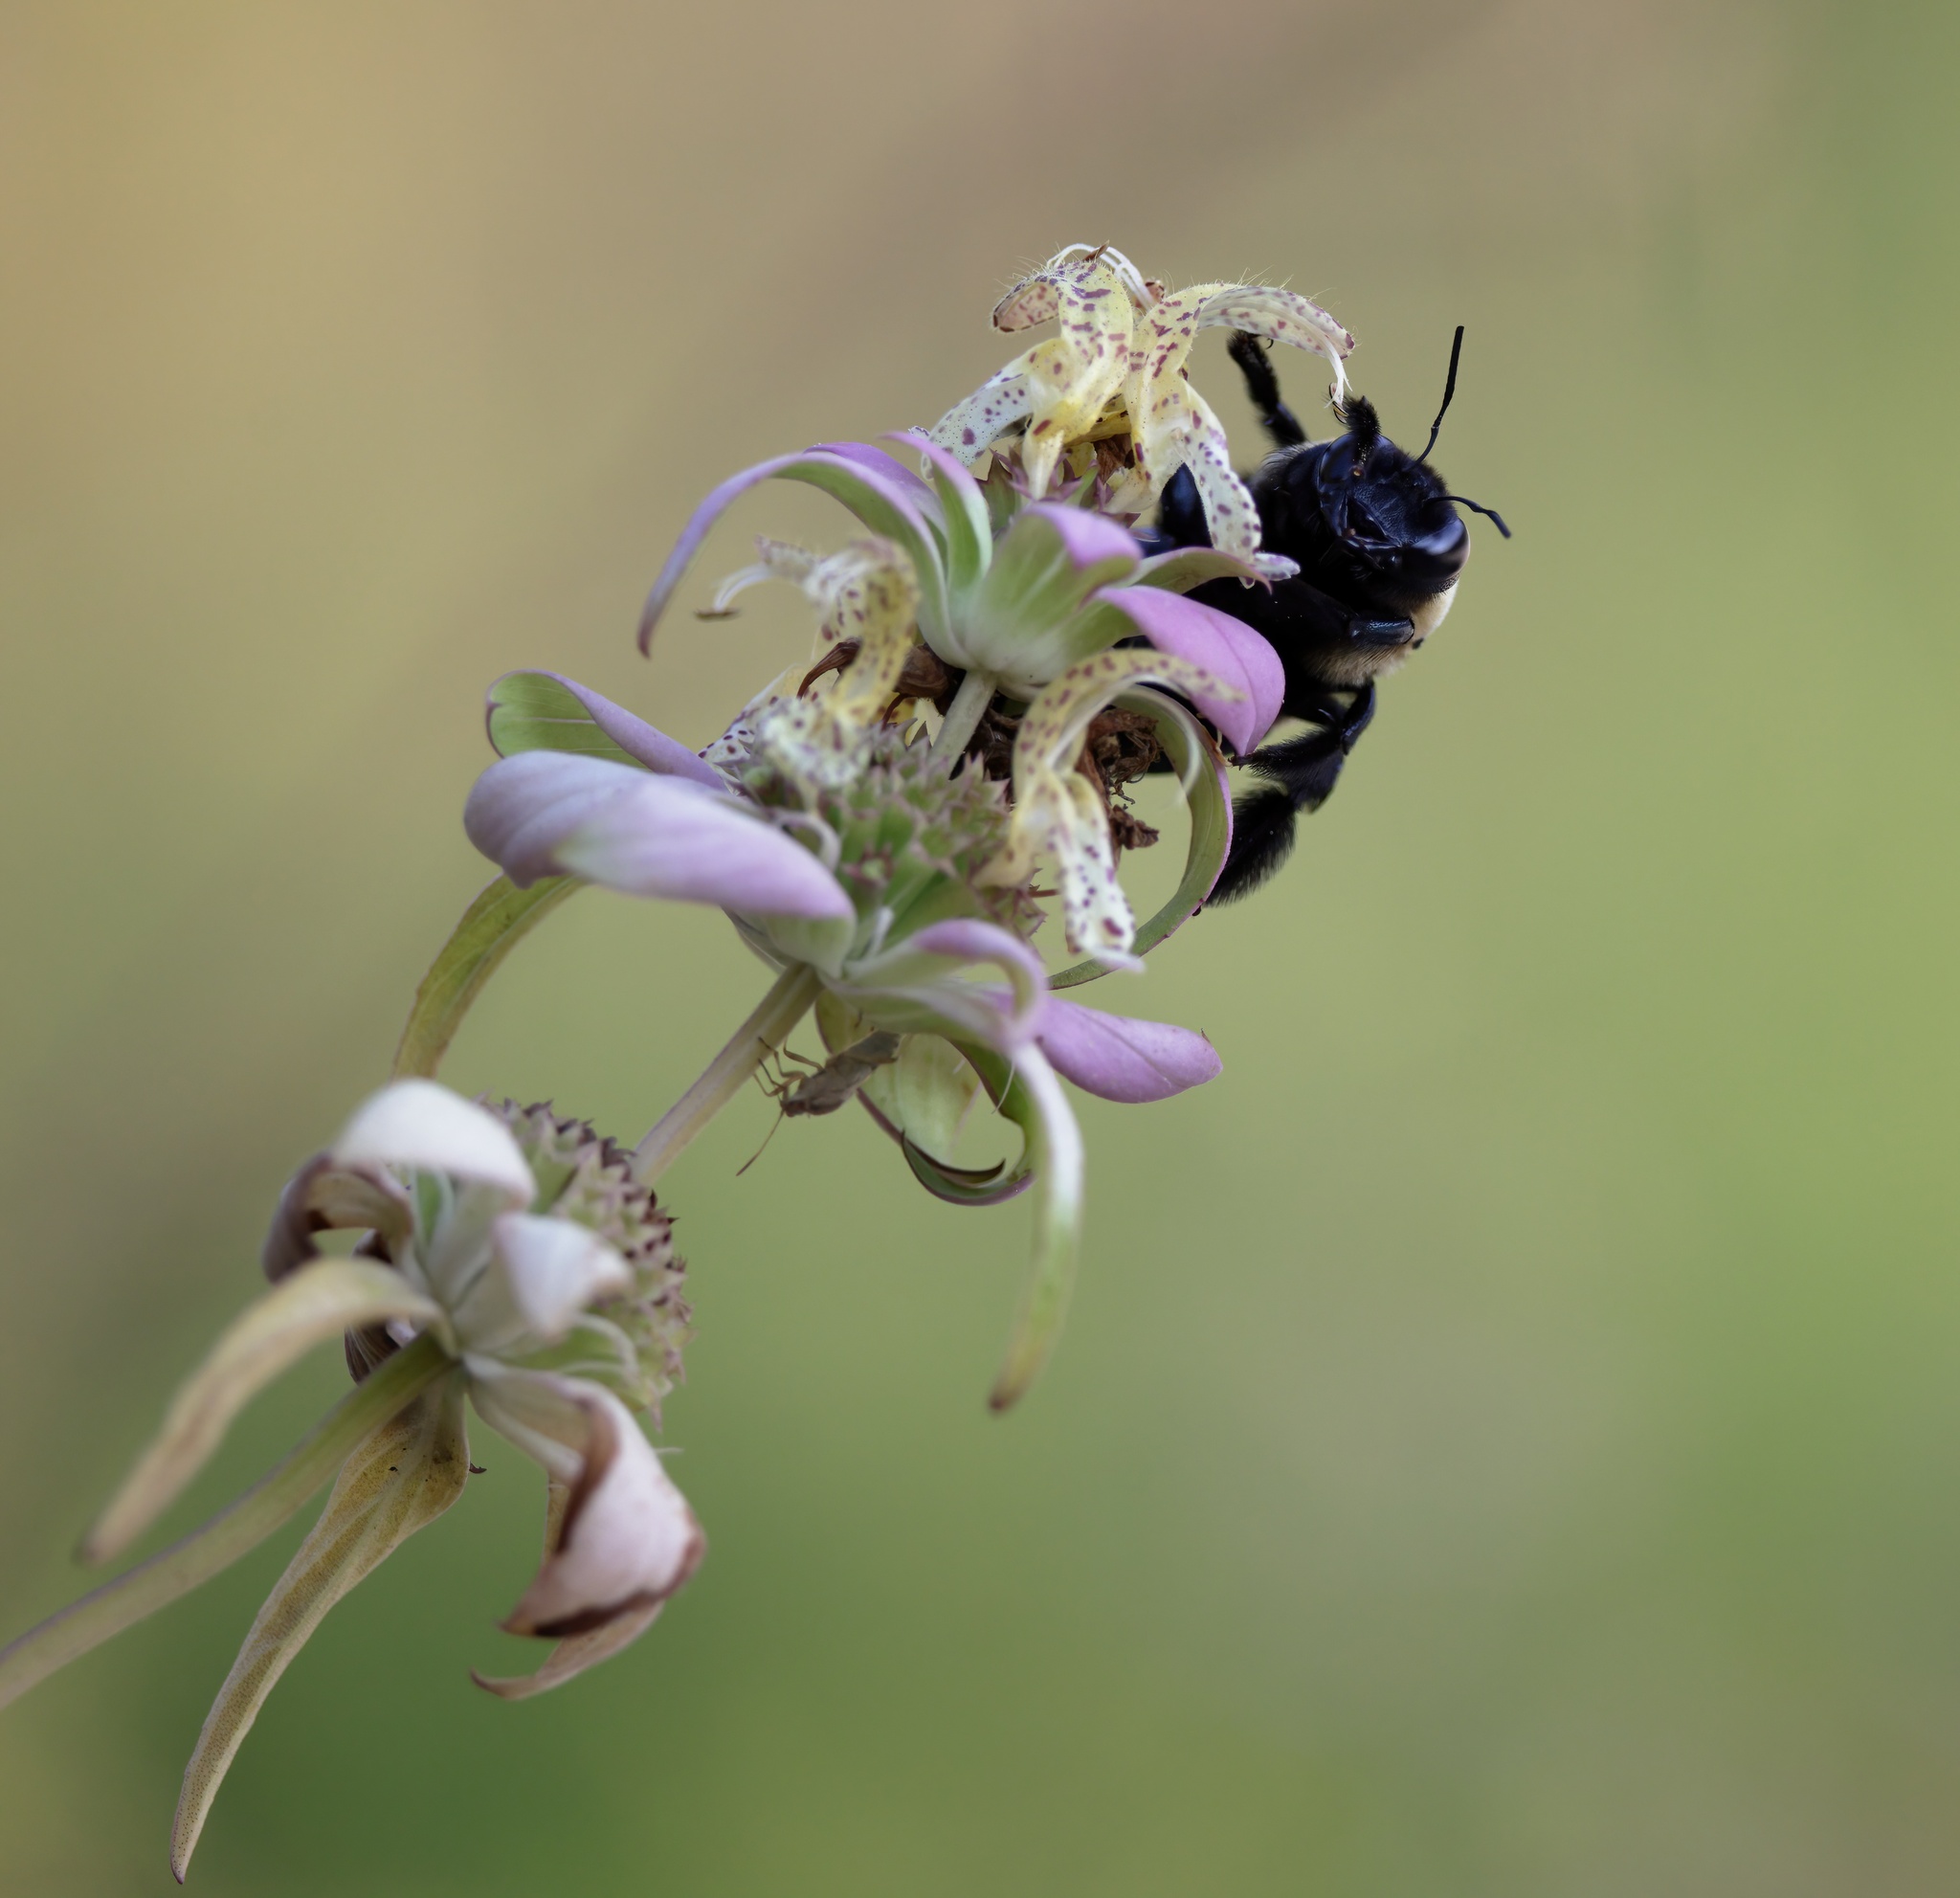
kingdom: Animalia
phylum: Arthropoda
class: Insecta
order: Hymenoptera
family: Apidae
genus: Xylocopa
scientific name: Xylocopa virginica
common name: Carpenter bee
